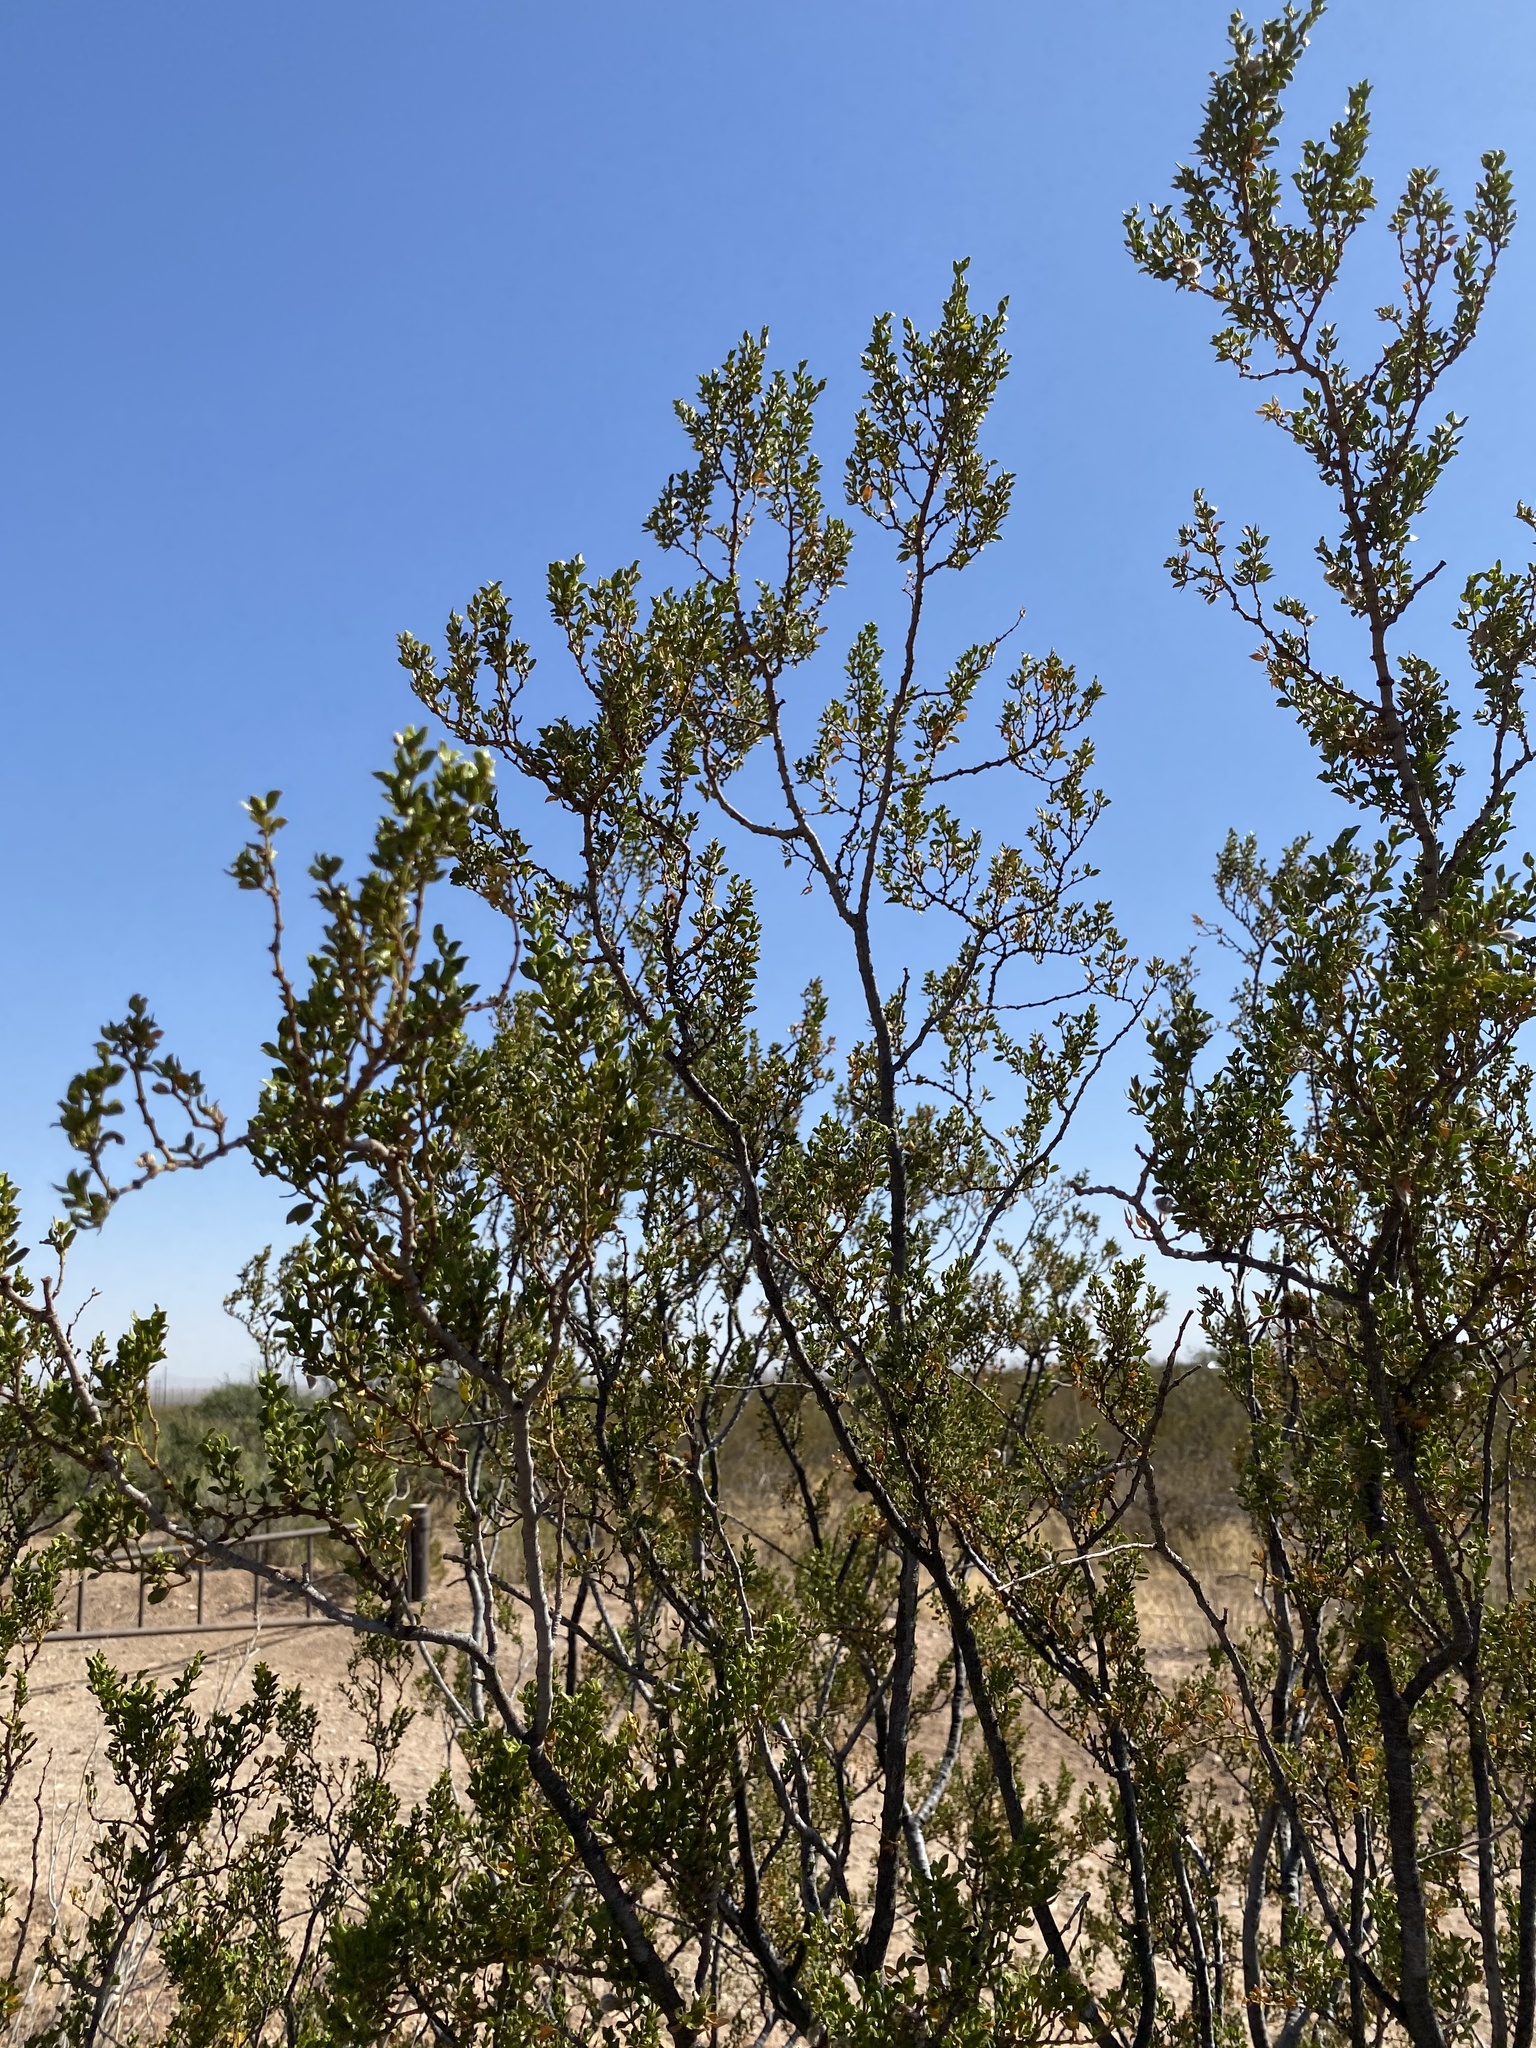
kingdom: Plantae
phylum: Tracheophyta
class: Magnoliopsida
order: Zygophyllales
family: Zygophyllaceae
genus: Larrea
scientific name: Larrea tridentata
